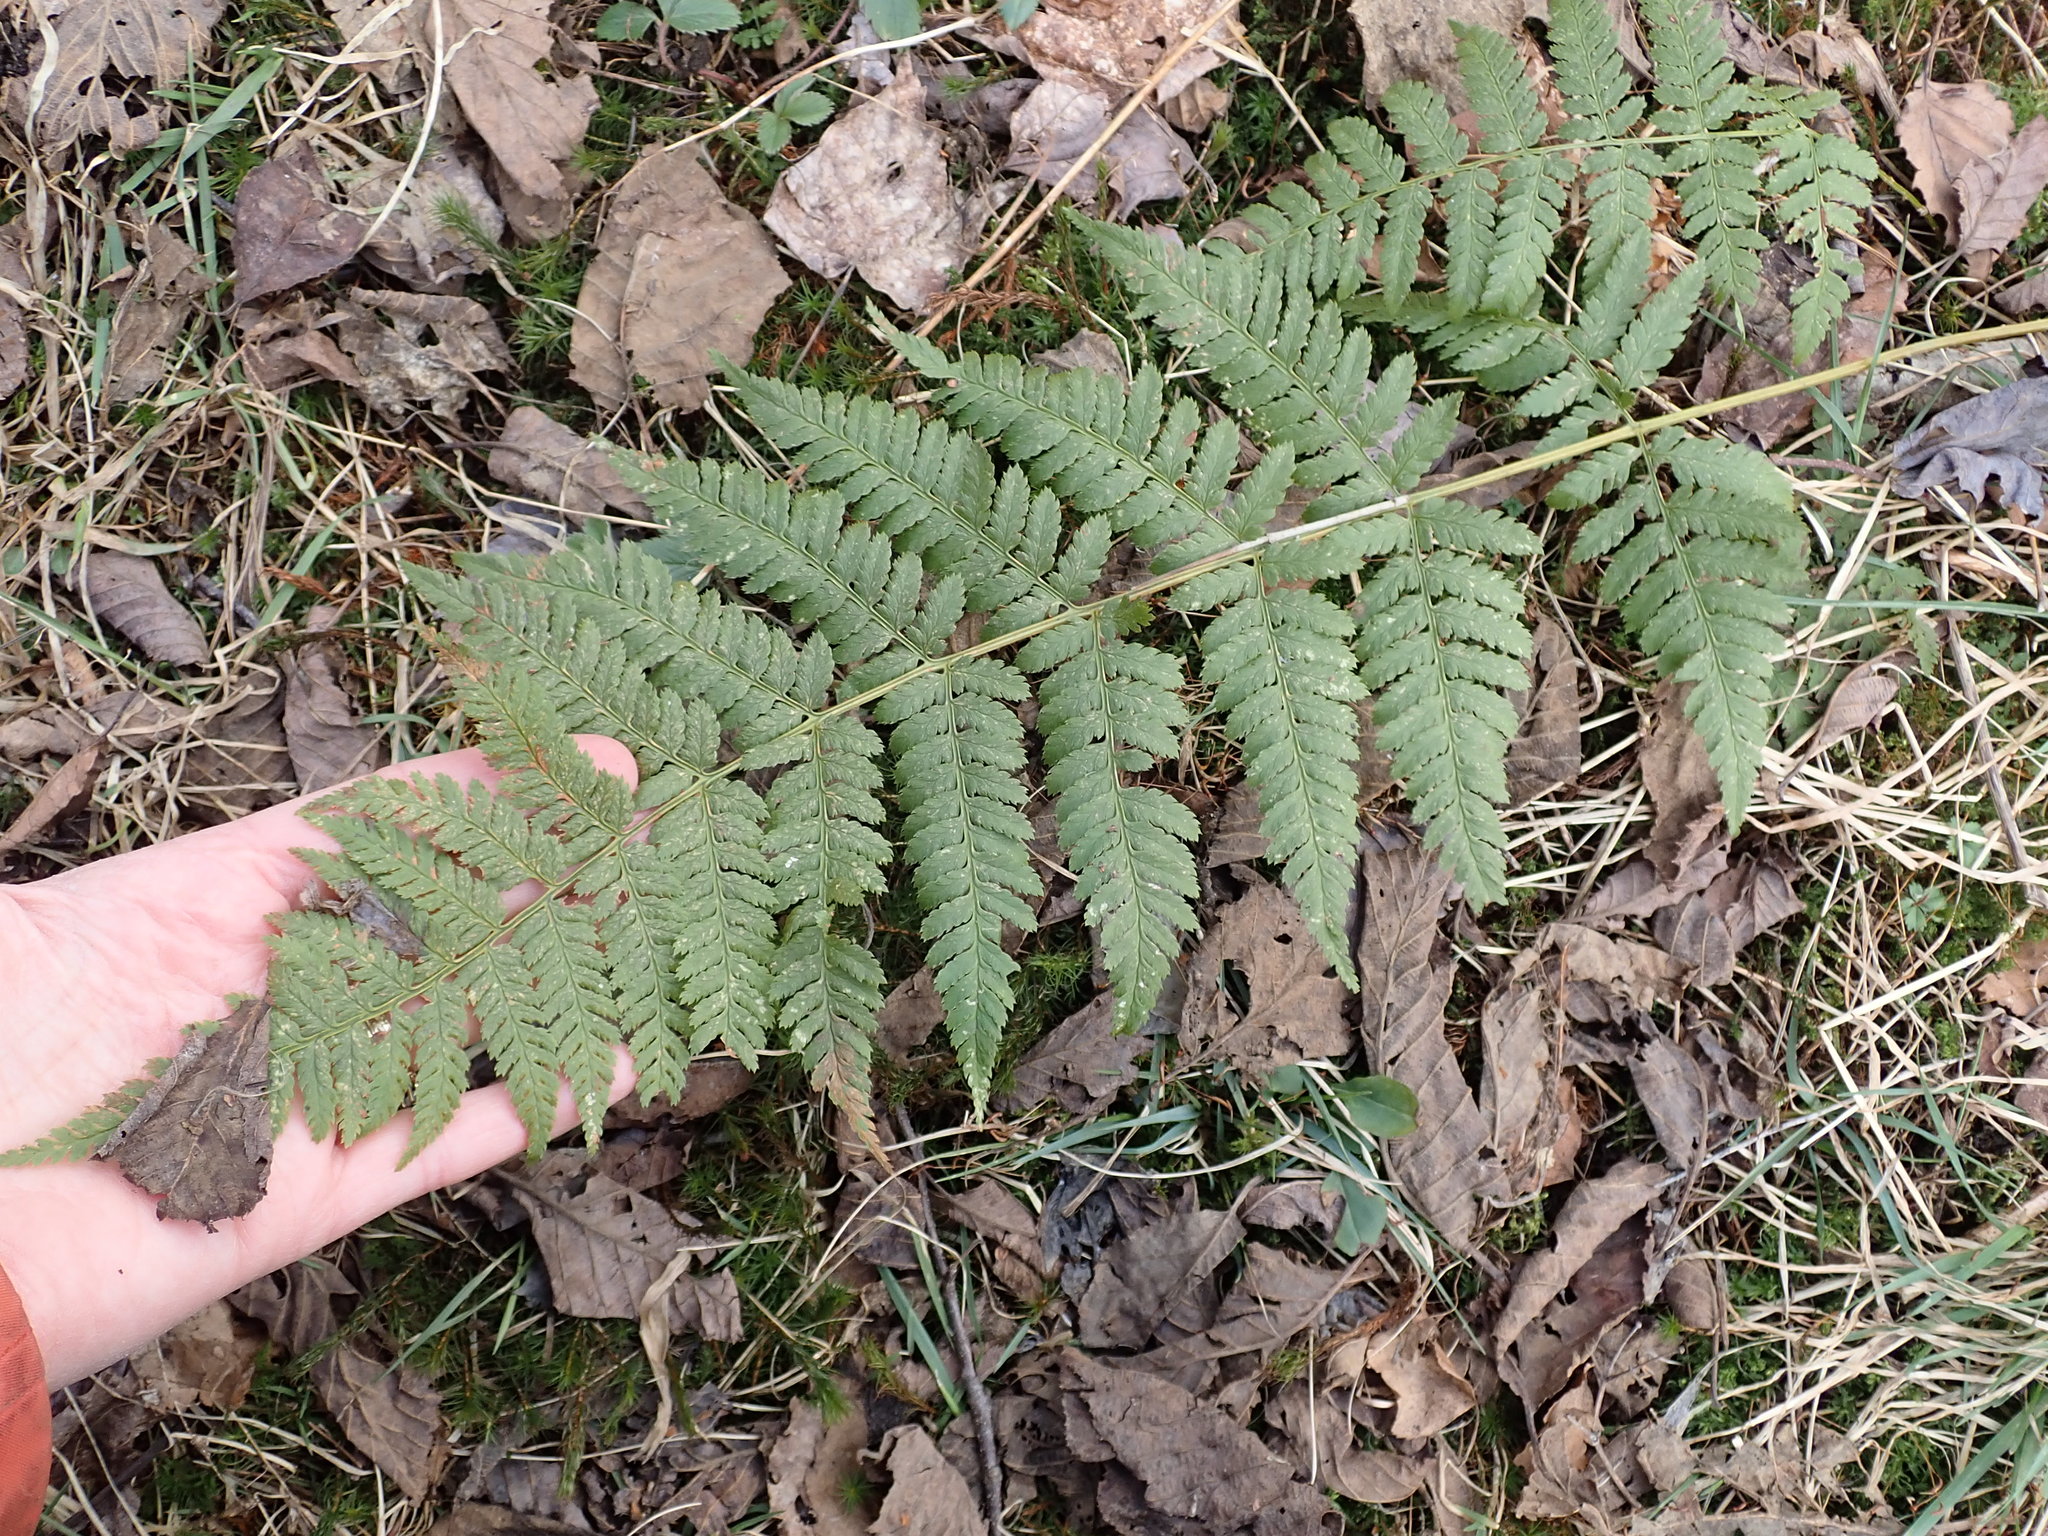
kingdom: Plantae
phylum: Tracheophyta
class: Polypodiopsida
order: Polypodiales
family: Dryopteridaceae
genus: Dryopteris
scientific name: Dryopteris carthusiana
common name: Narrow buckler-fern
